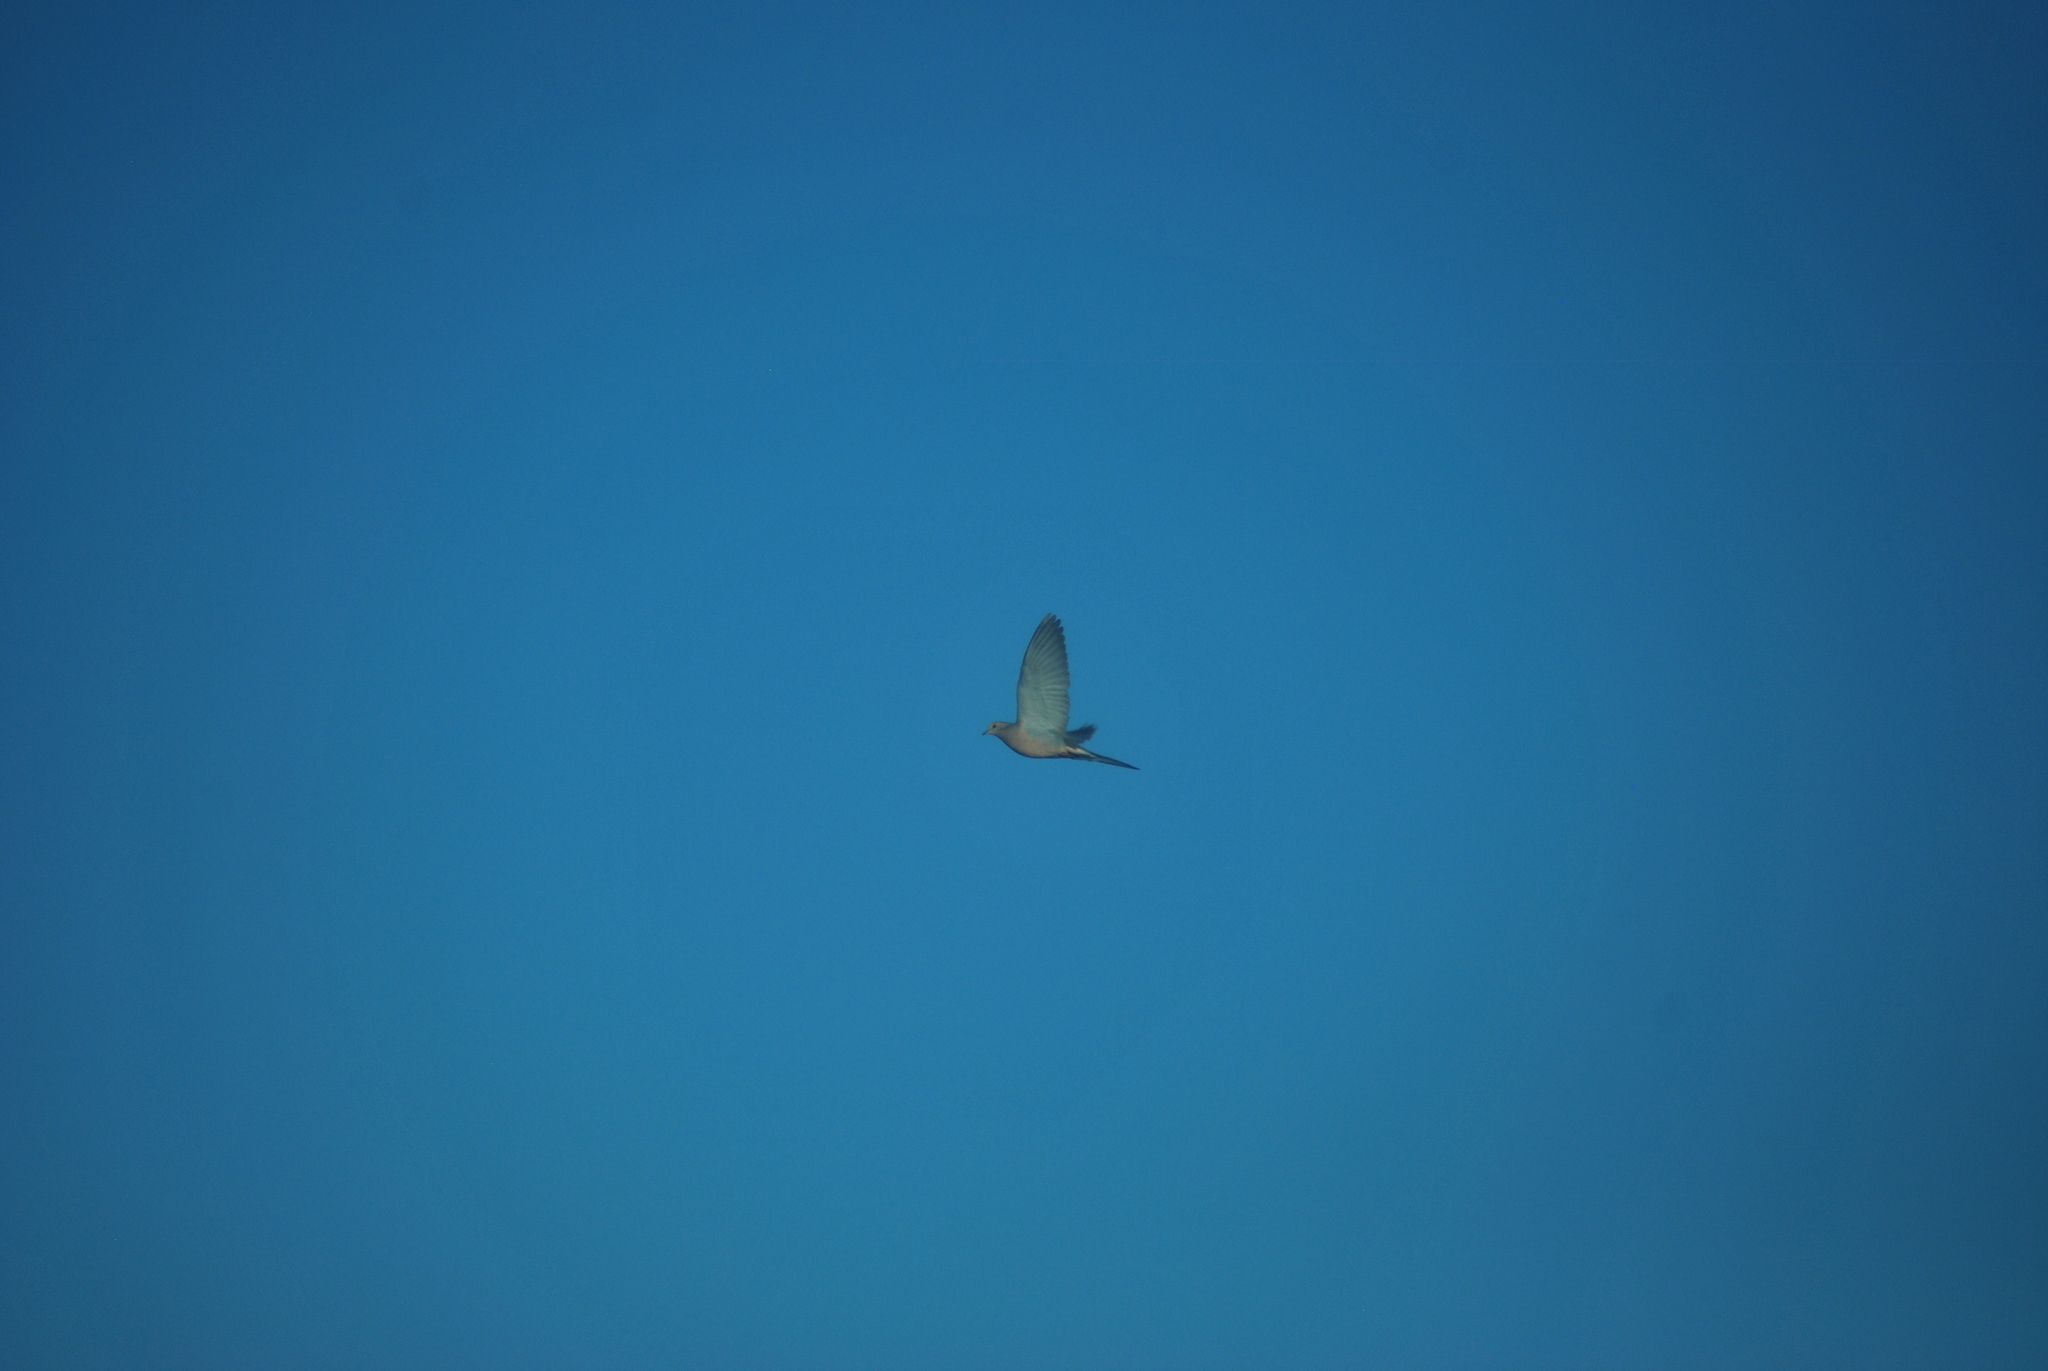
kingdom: Animalia
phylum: Chordata
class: Aves
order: Columbiformes
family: Columbidae
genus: Zenaida
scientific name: Zenaida macroura
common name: Mourning dove
